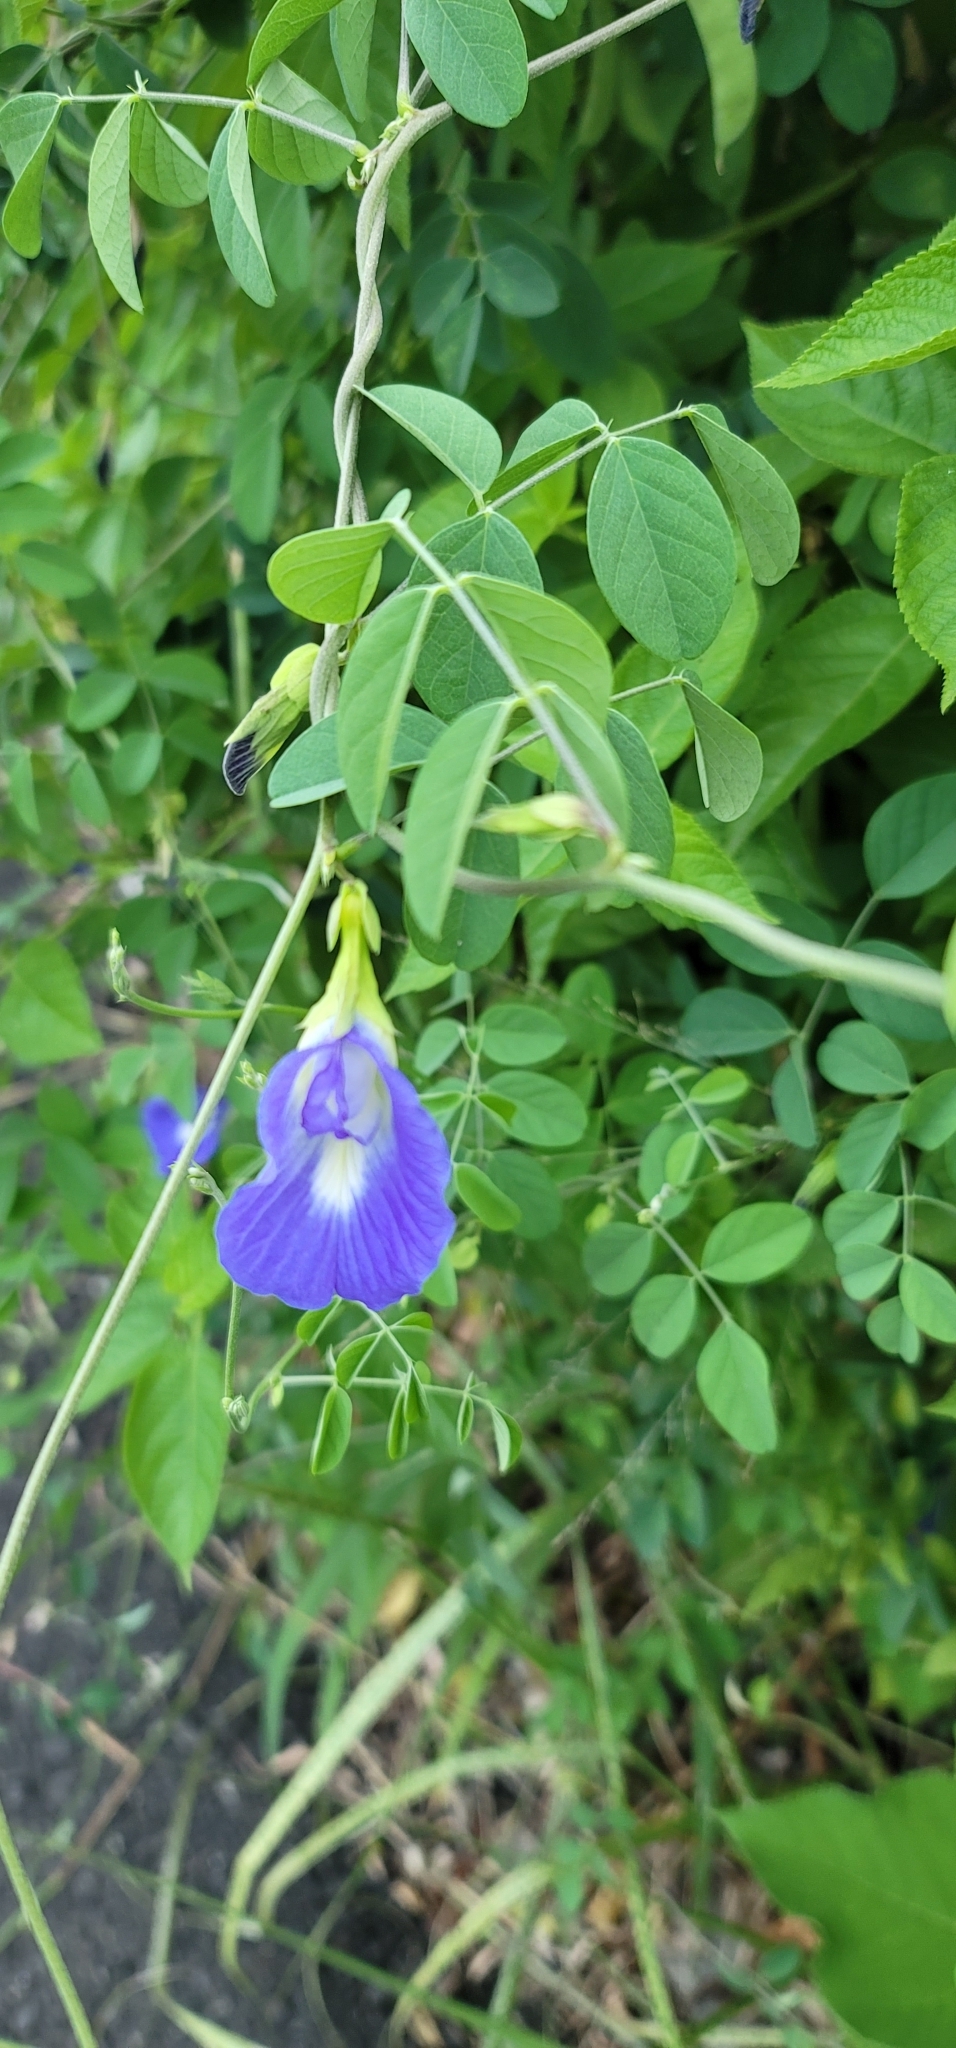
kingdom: Plantae
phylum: Tracheophyta
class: Magnoliopsida
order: Fabales
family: Fabaceae
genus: Clitoria
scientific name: Clitoria ternatea
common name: Asian pigeonwings
